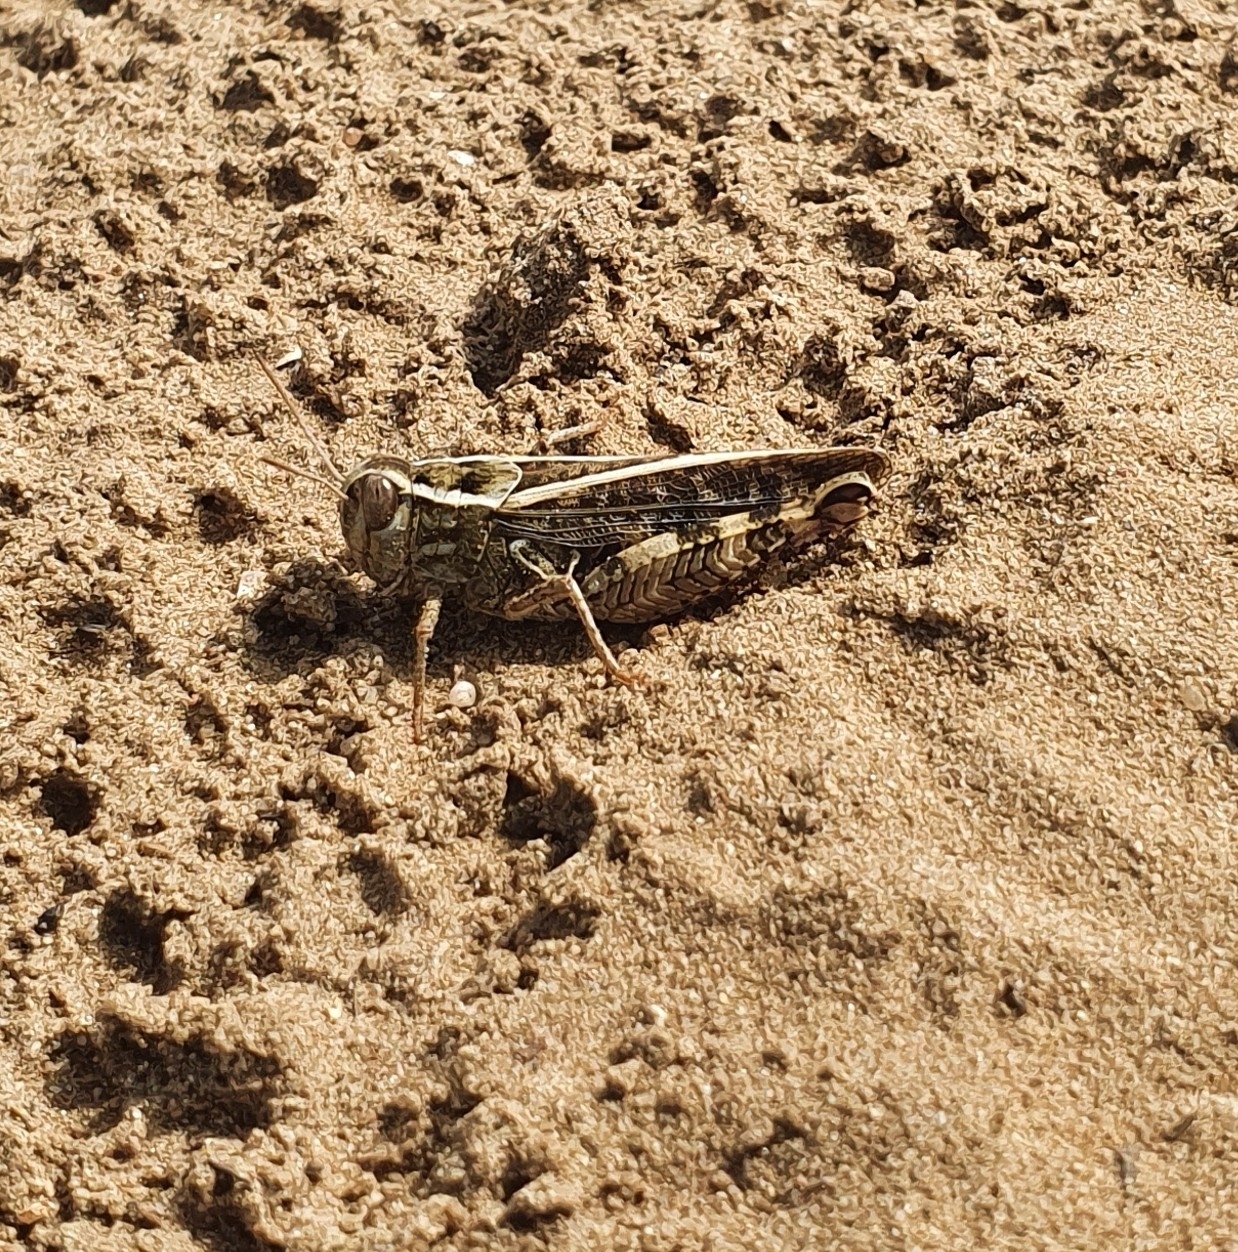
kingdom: Animalia
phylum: Arthropoda
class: Insecta
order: Orthoptera
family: Acrididae
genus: Calliptamus
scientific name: Calliptamus italicus
